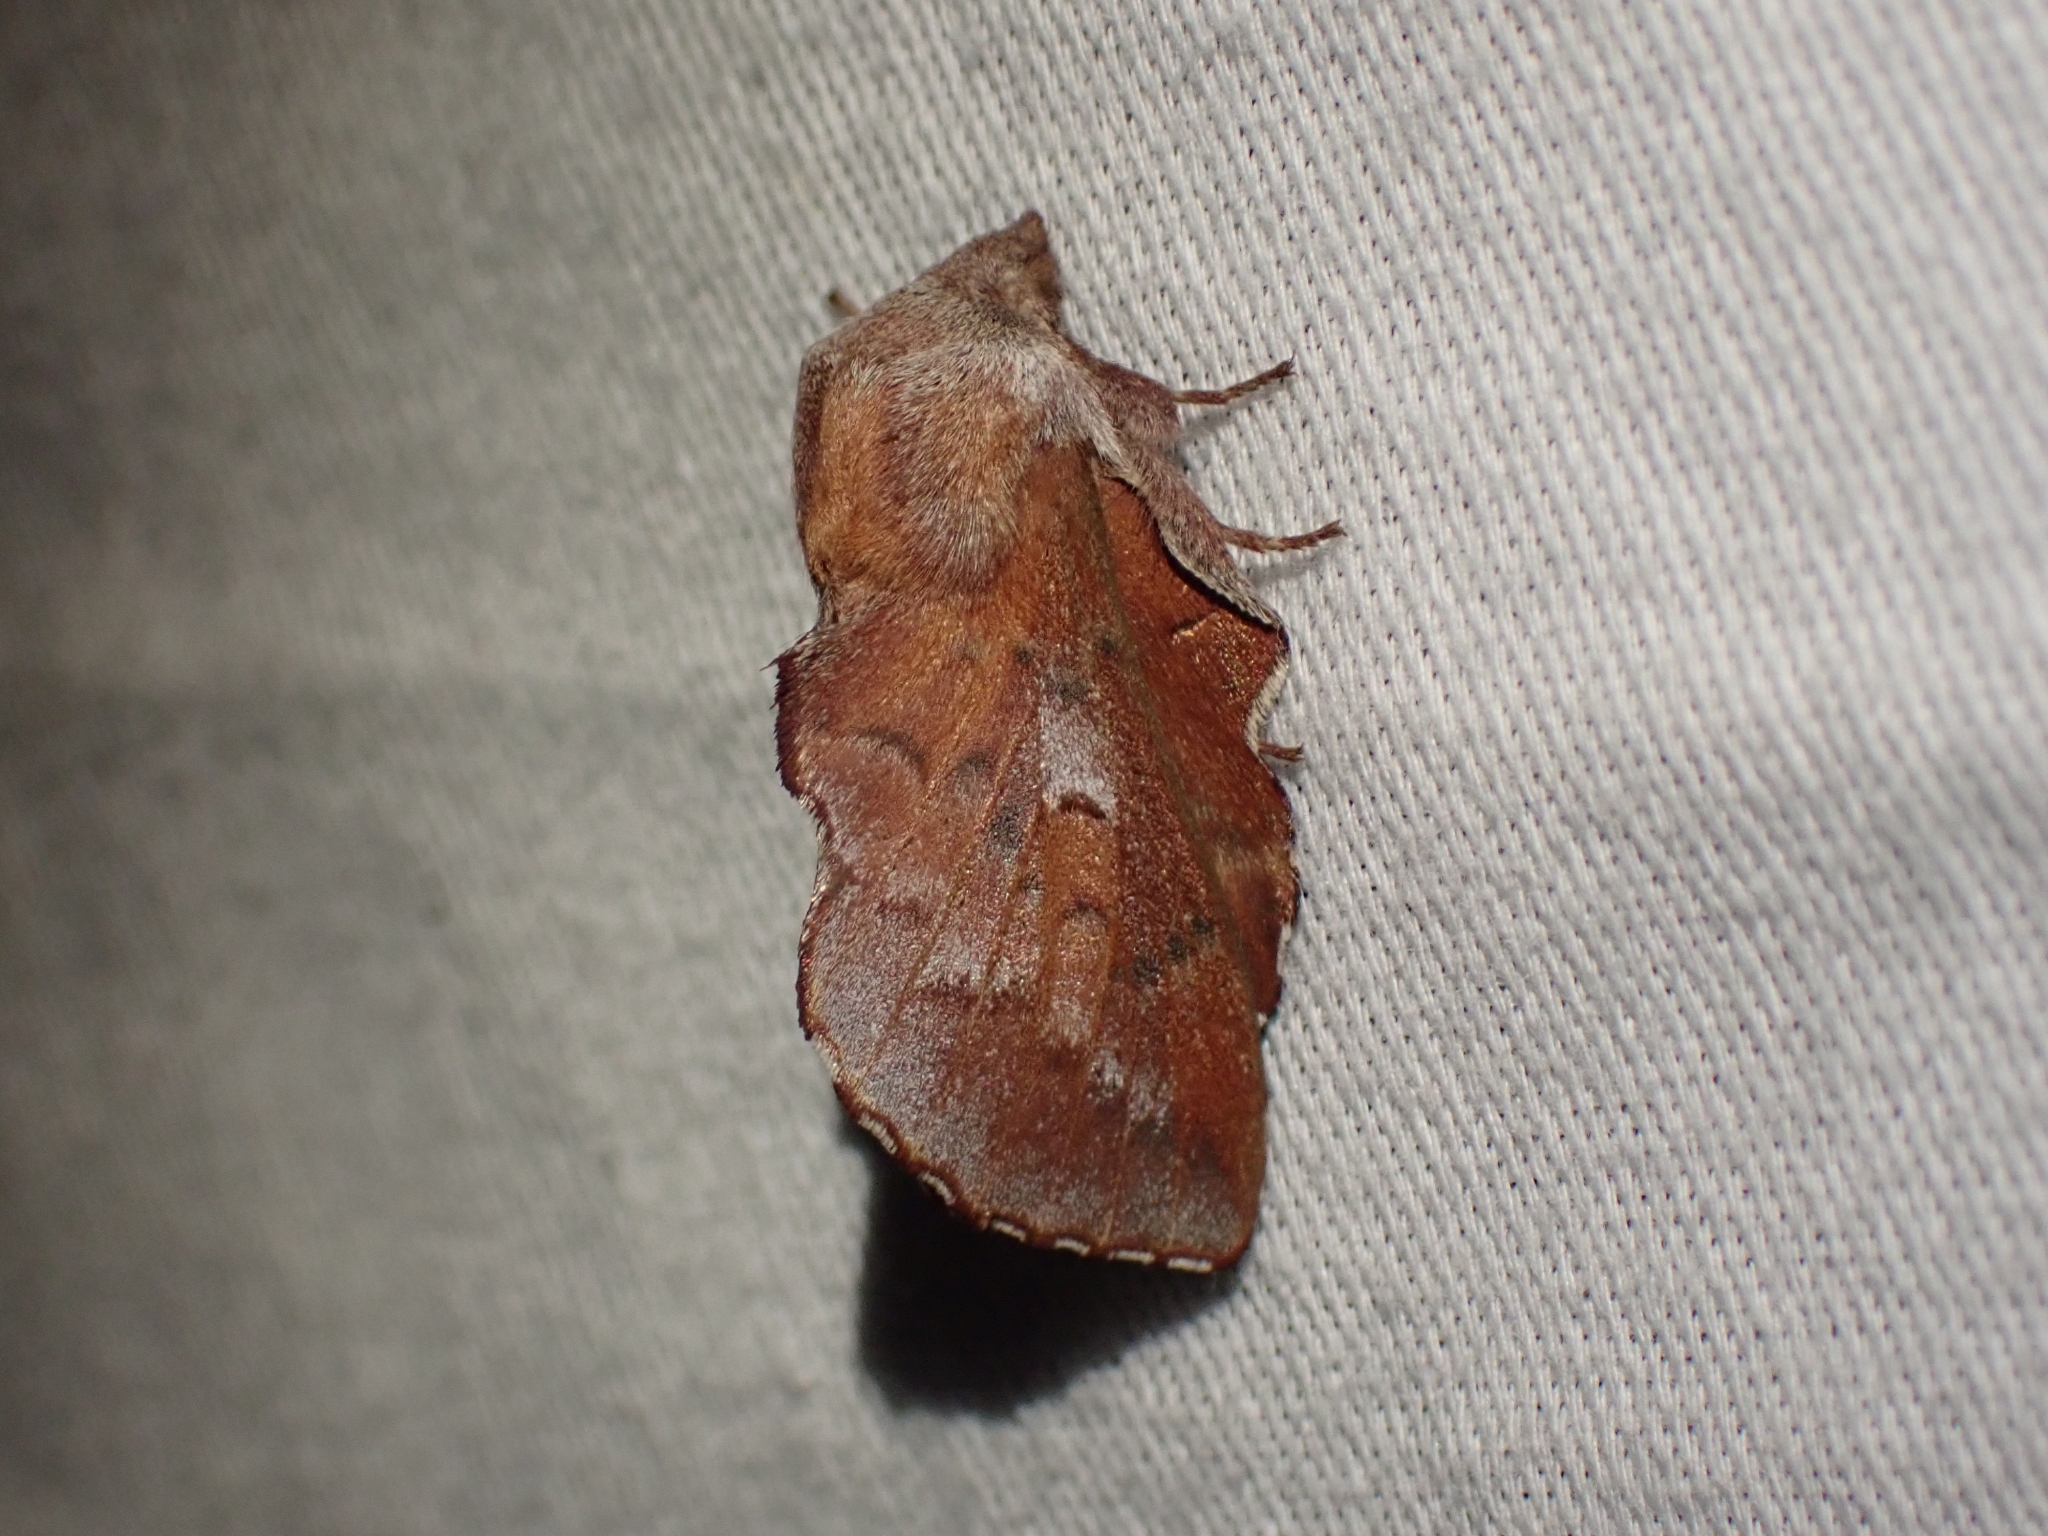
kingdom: Animalia
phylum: Arthropoda
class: Insecta
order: Lepidoptera
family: Lasiocampidae
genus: Phyllodesma
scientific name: Phyllodesma americana
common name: American lappet moth
